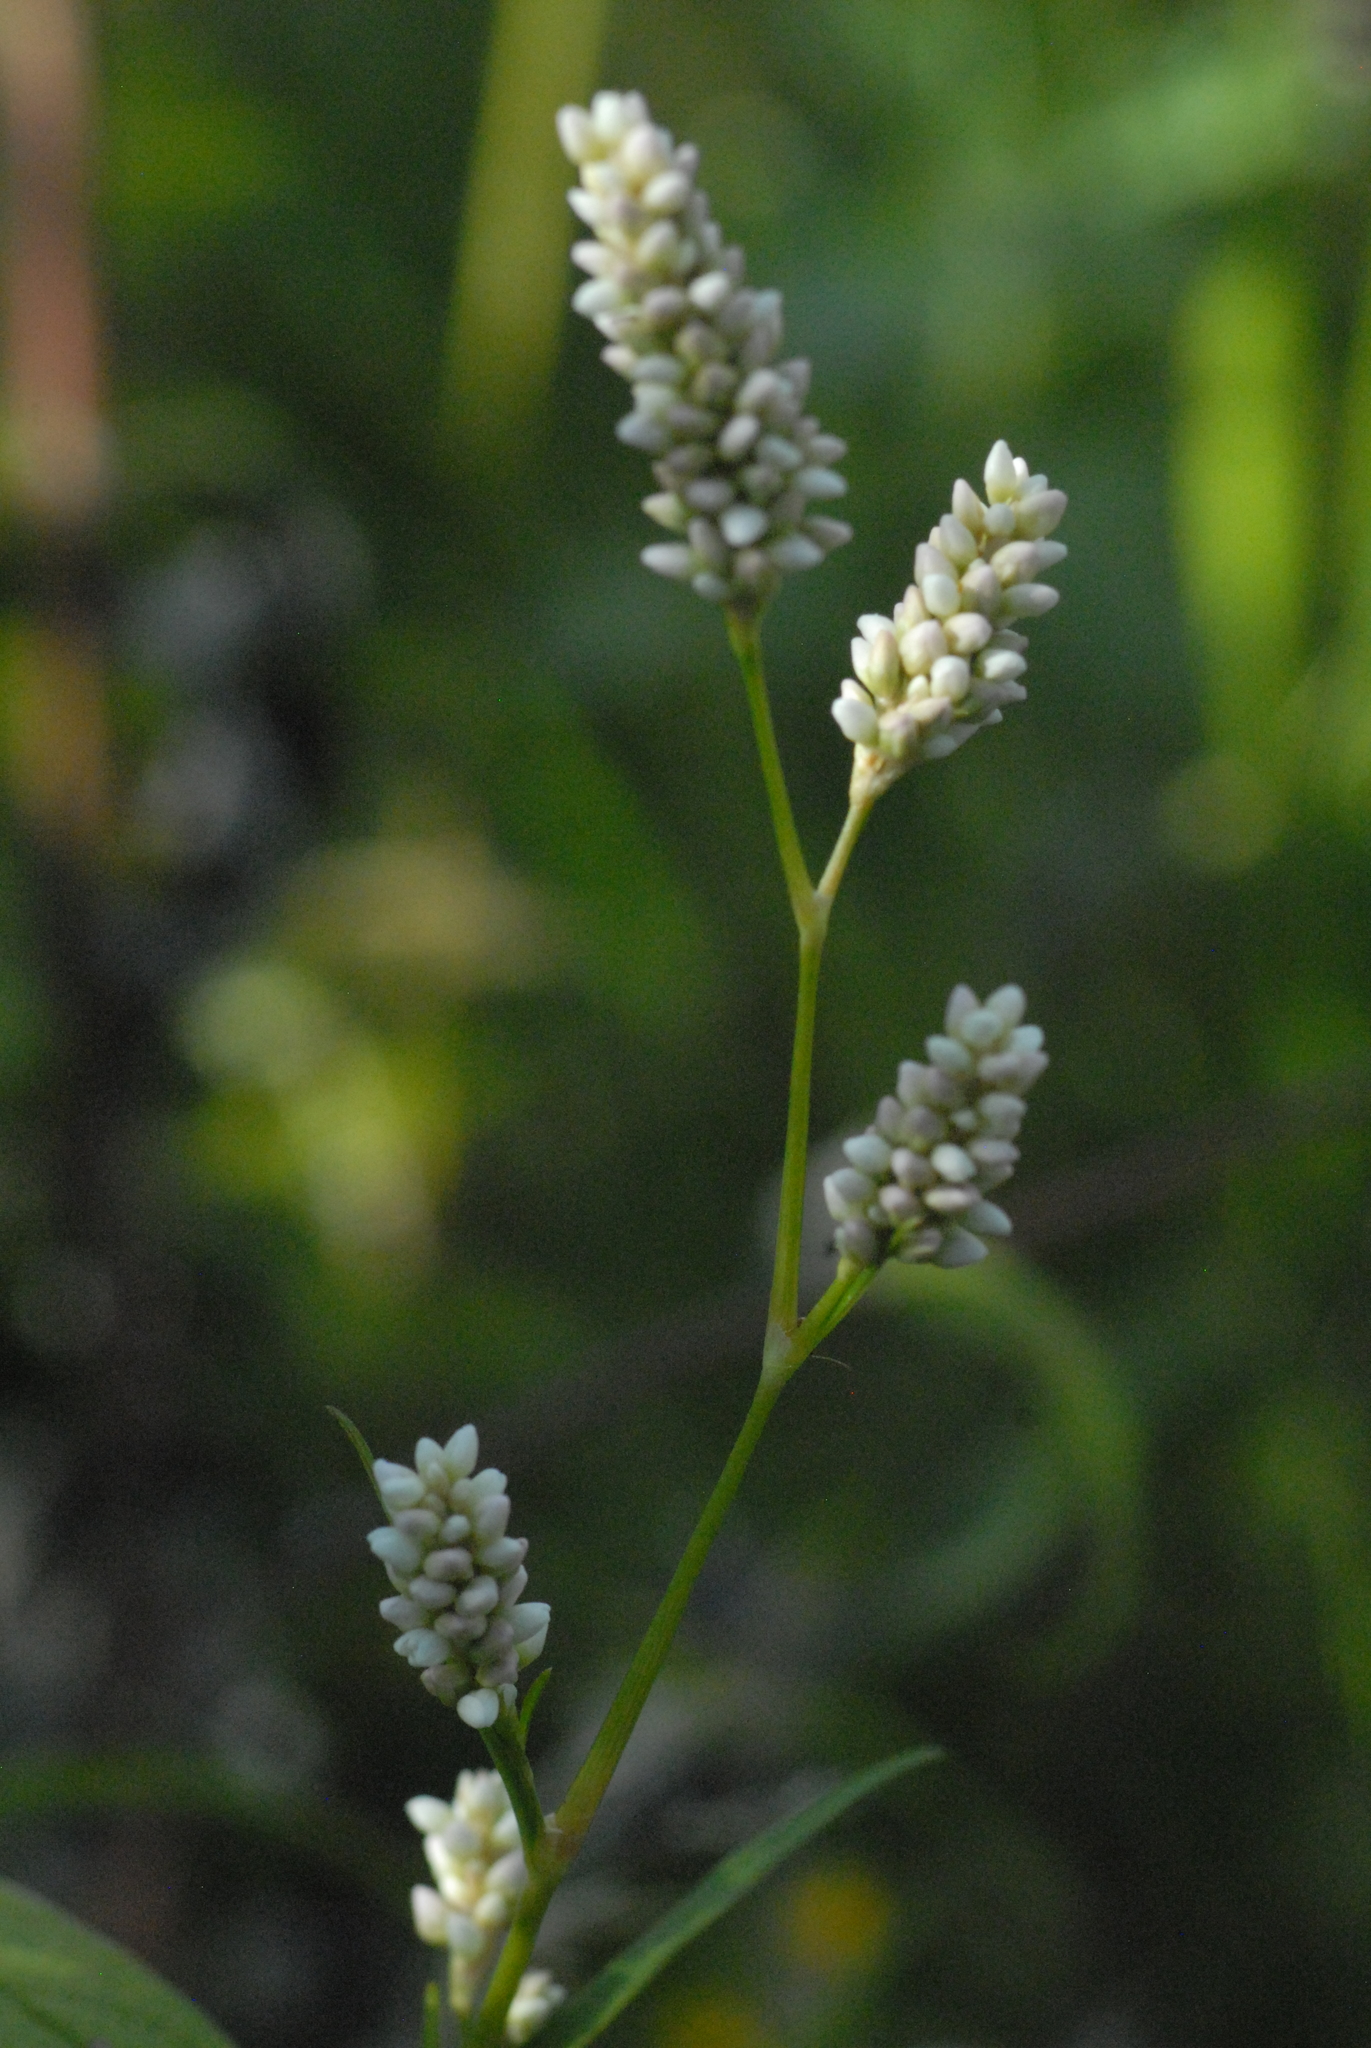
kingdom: Plantae
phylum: Tracheophyta
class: Magnoliopsida
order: Caryophyllales
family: Polygonaceae
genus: Persicaria
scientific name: Persicaria lapathifolia
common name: Curlytop knotweed
